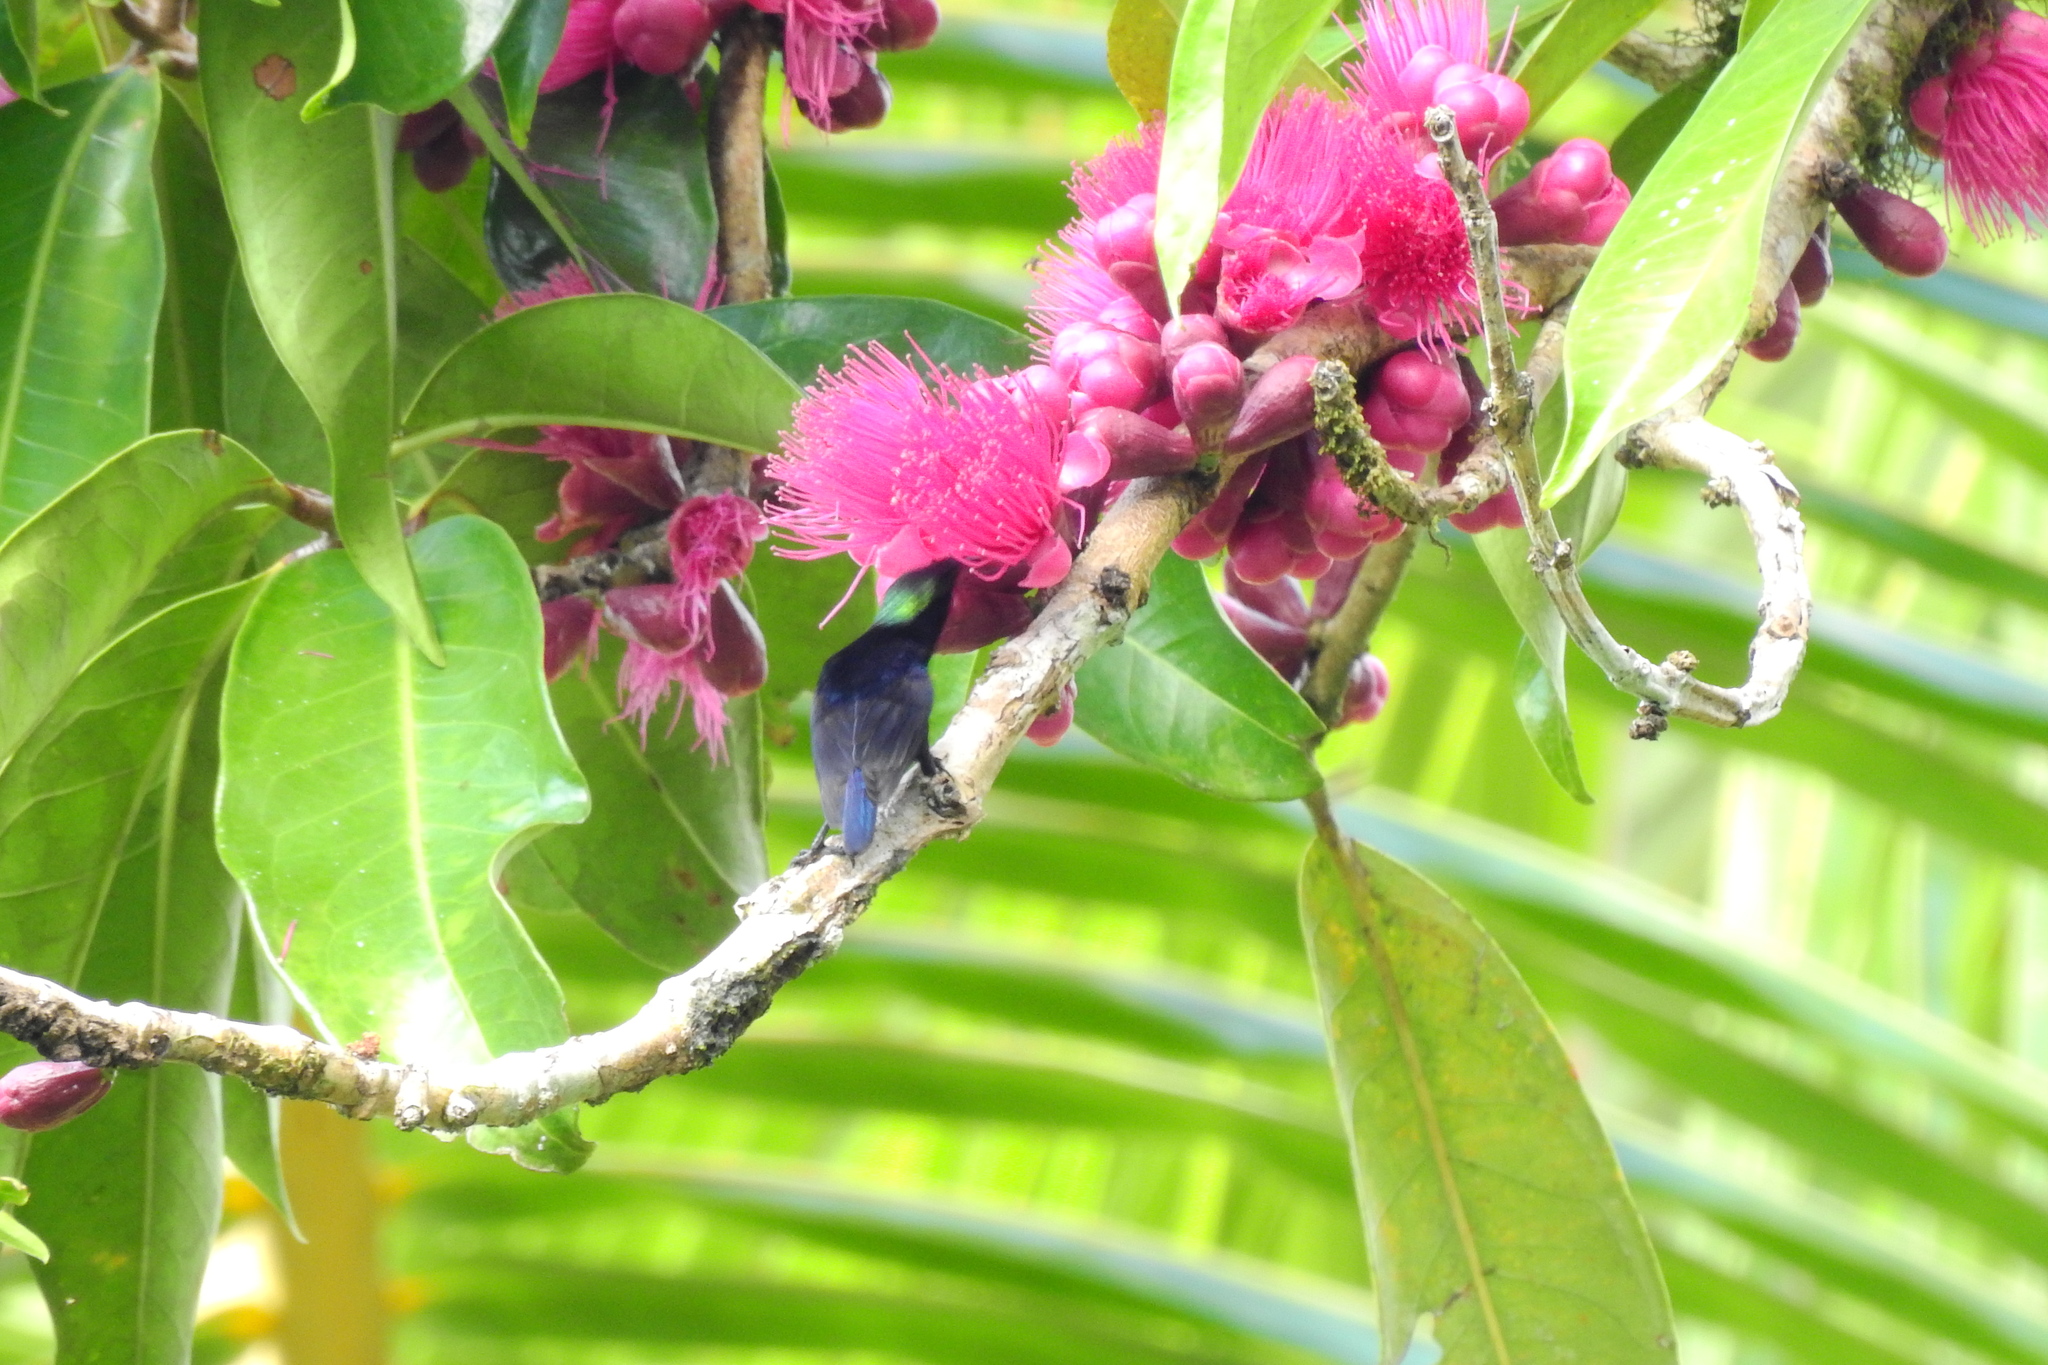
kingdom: Animalia
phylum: Chordata
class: Aves
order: Passeriformes
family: Nectariniidae
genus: Leptocoma
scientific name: Leptocoma sericea
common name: Black sunbird
